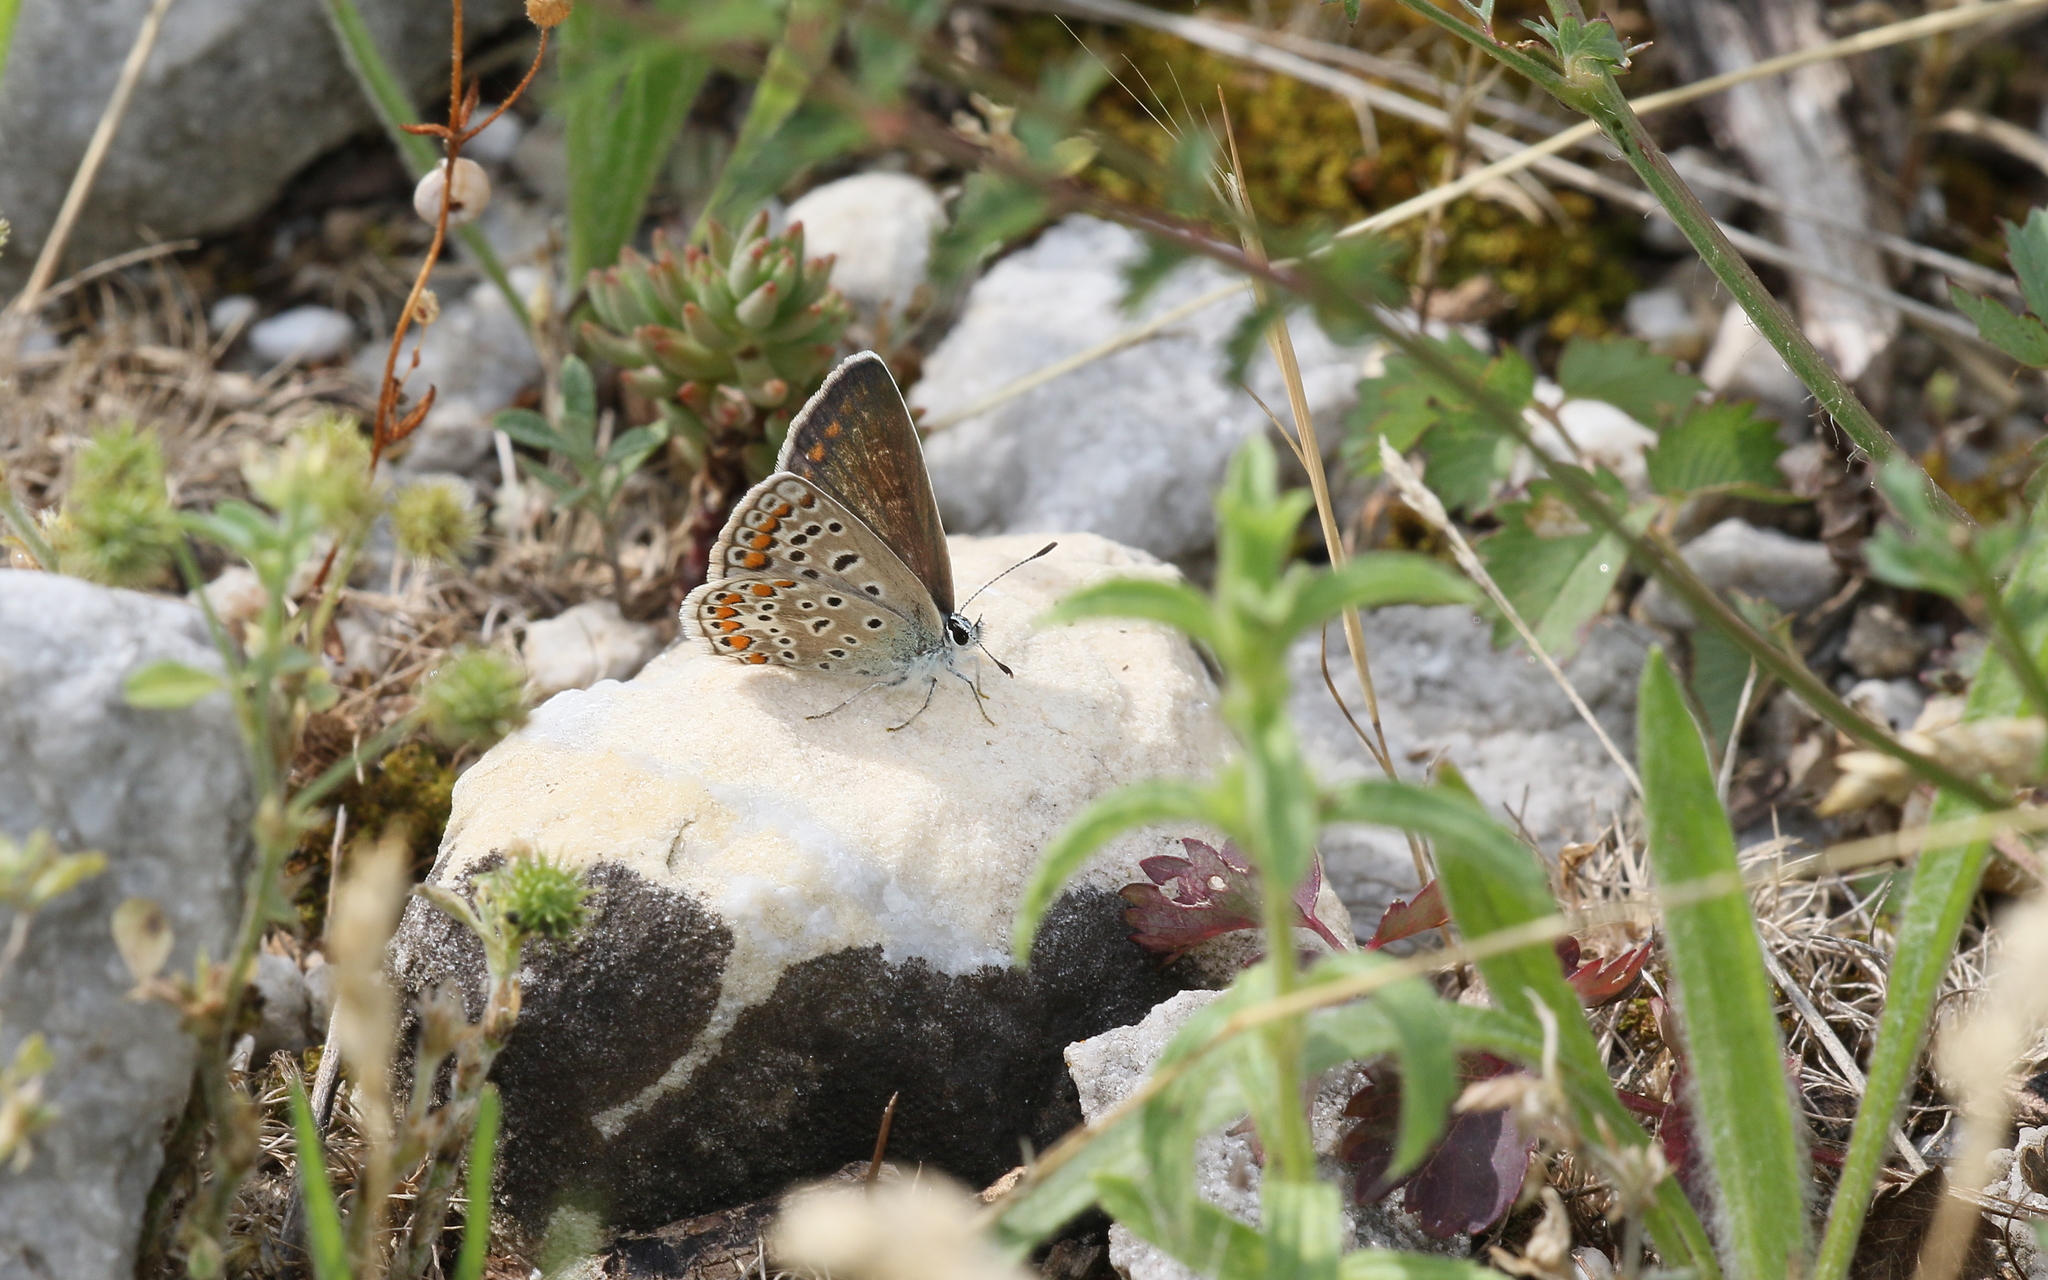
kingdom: Animalia
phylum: Arthropoda
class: Insecta
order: Lepidoptera
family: Lycaenidae
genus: Polyommatus
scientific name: Polyommatus icarus
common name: Common blue
